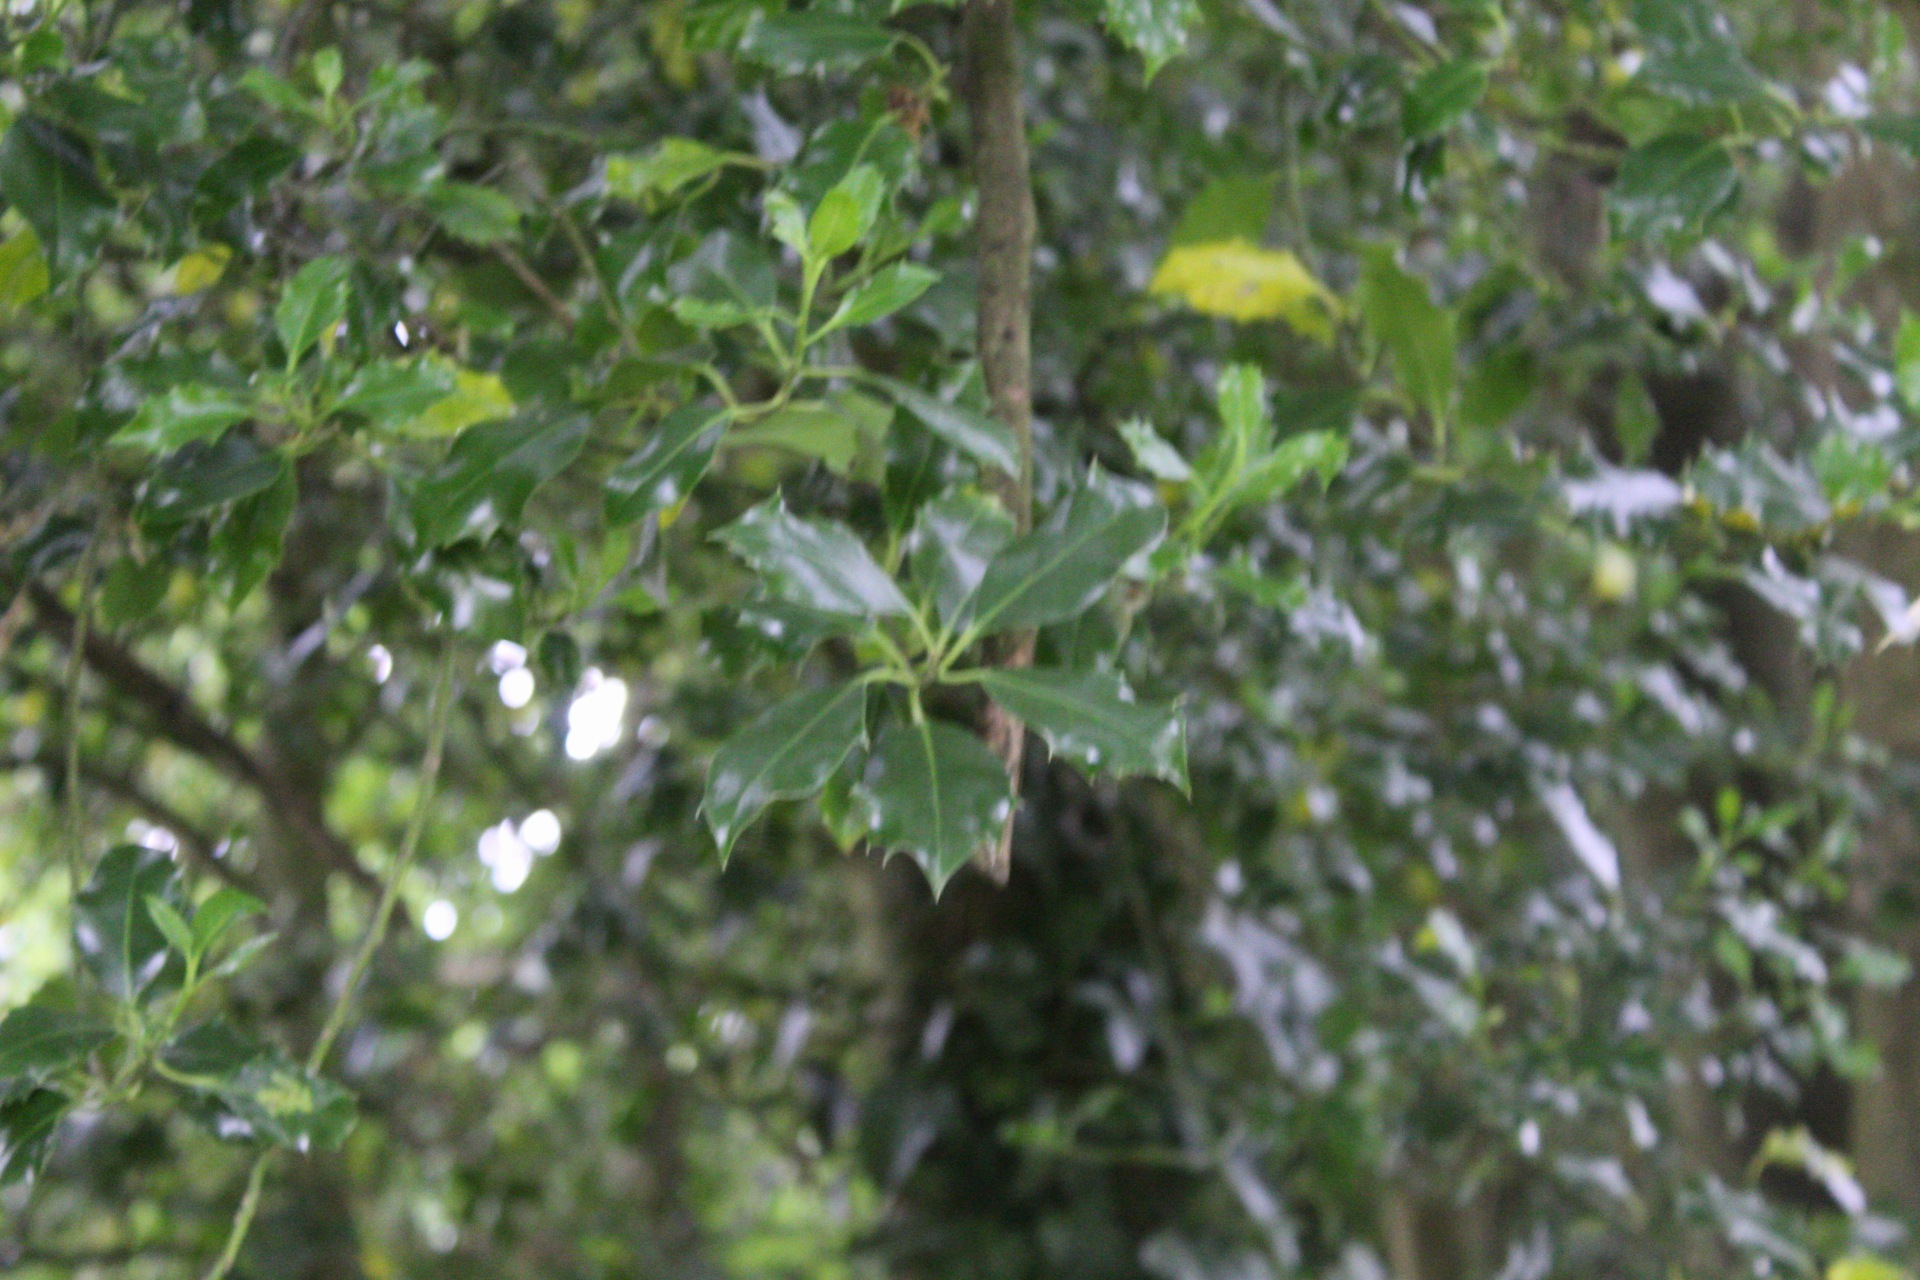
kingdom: Plantae
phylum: Tracheophyta
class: Magnoliopsida
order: Aquifoliales
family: Aquifoliaceae
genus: Ilex
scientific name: Ilex aquifolium
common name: English holly
